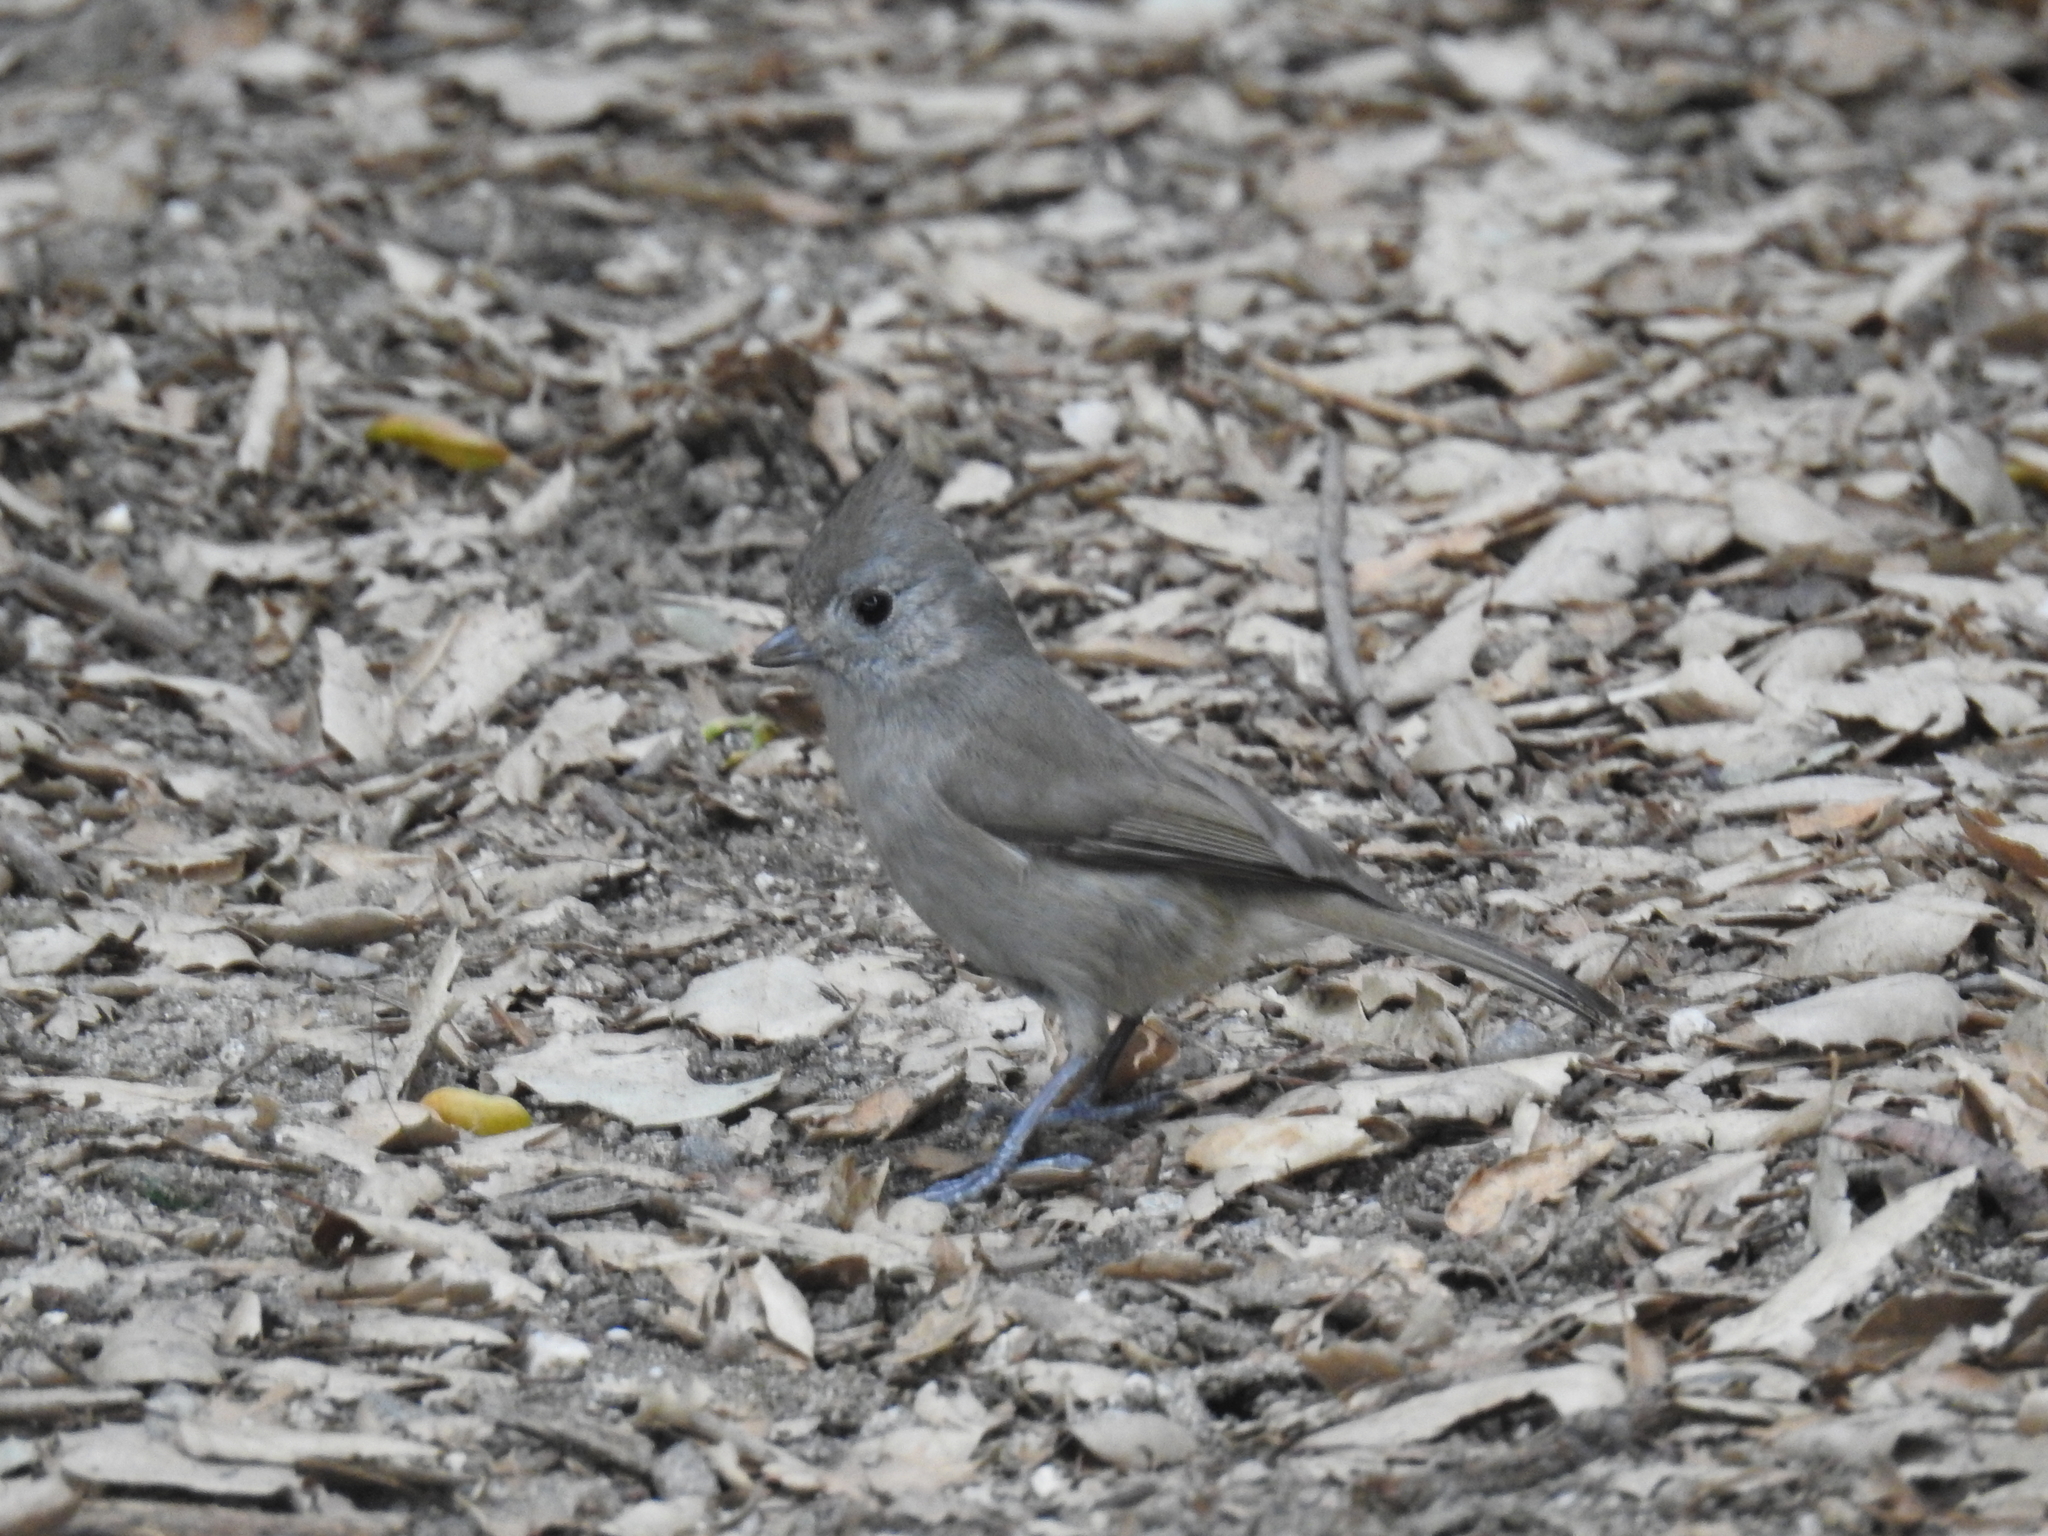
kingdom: Animalia
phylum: Chordata
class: Aves
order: Passeriformes
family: Paridae
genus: Baeolophus
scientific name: Baeolophus inornatus
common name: Oak titmouse
